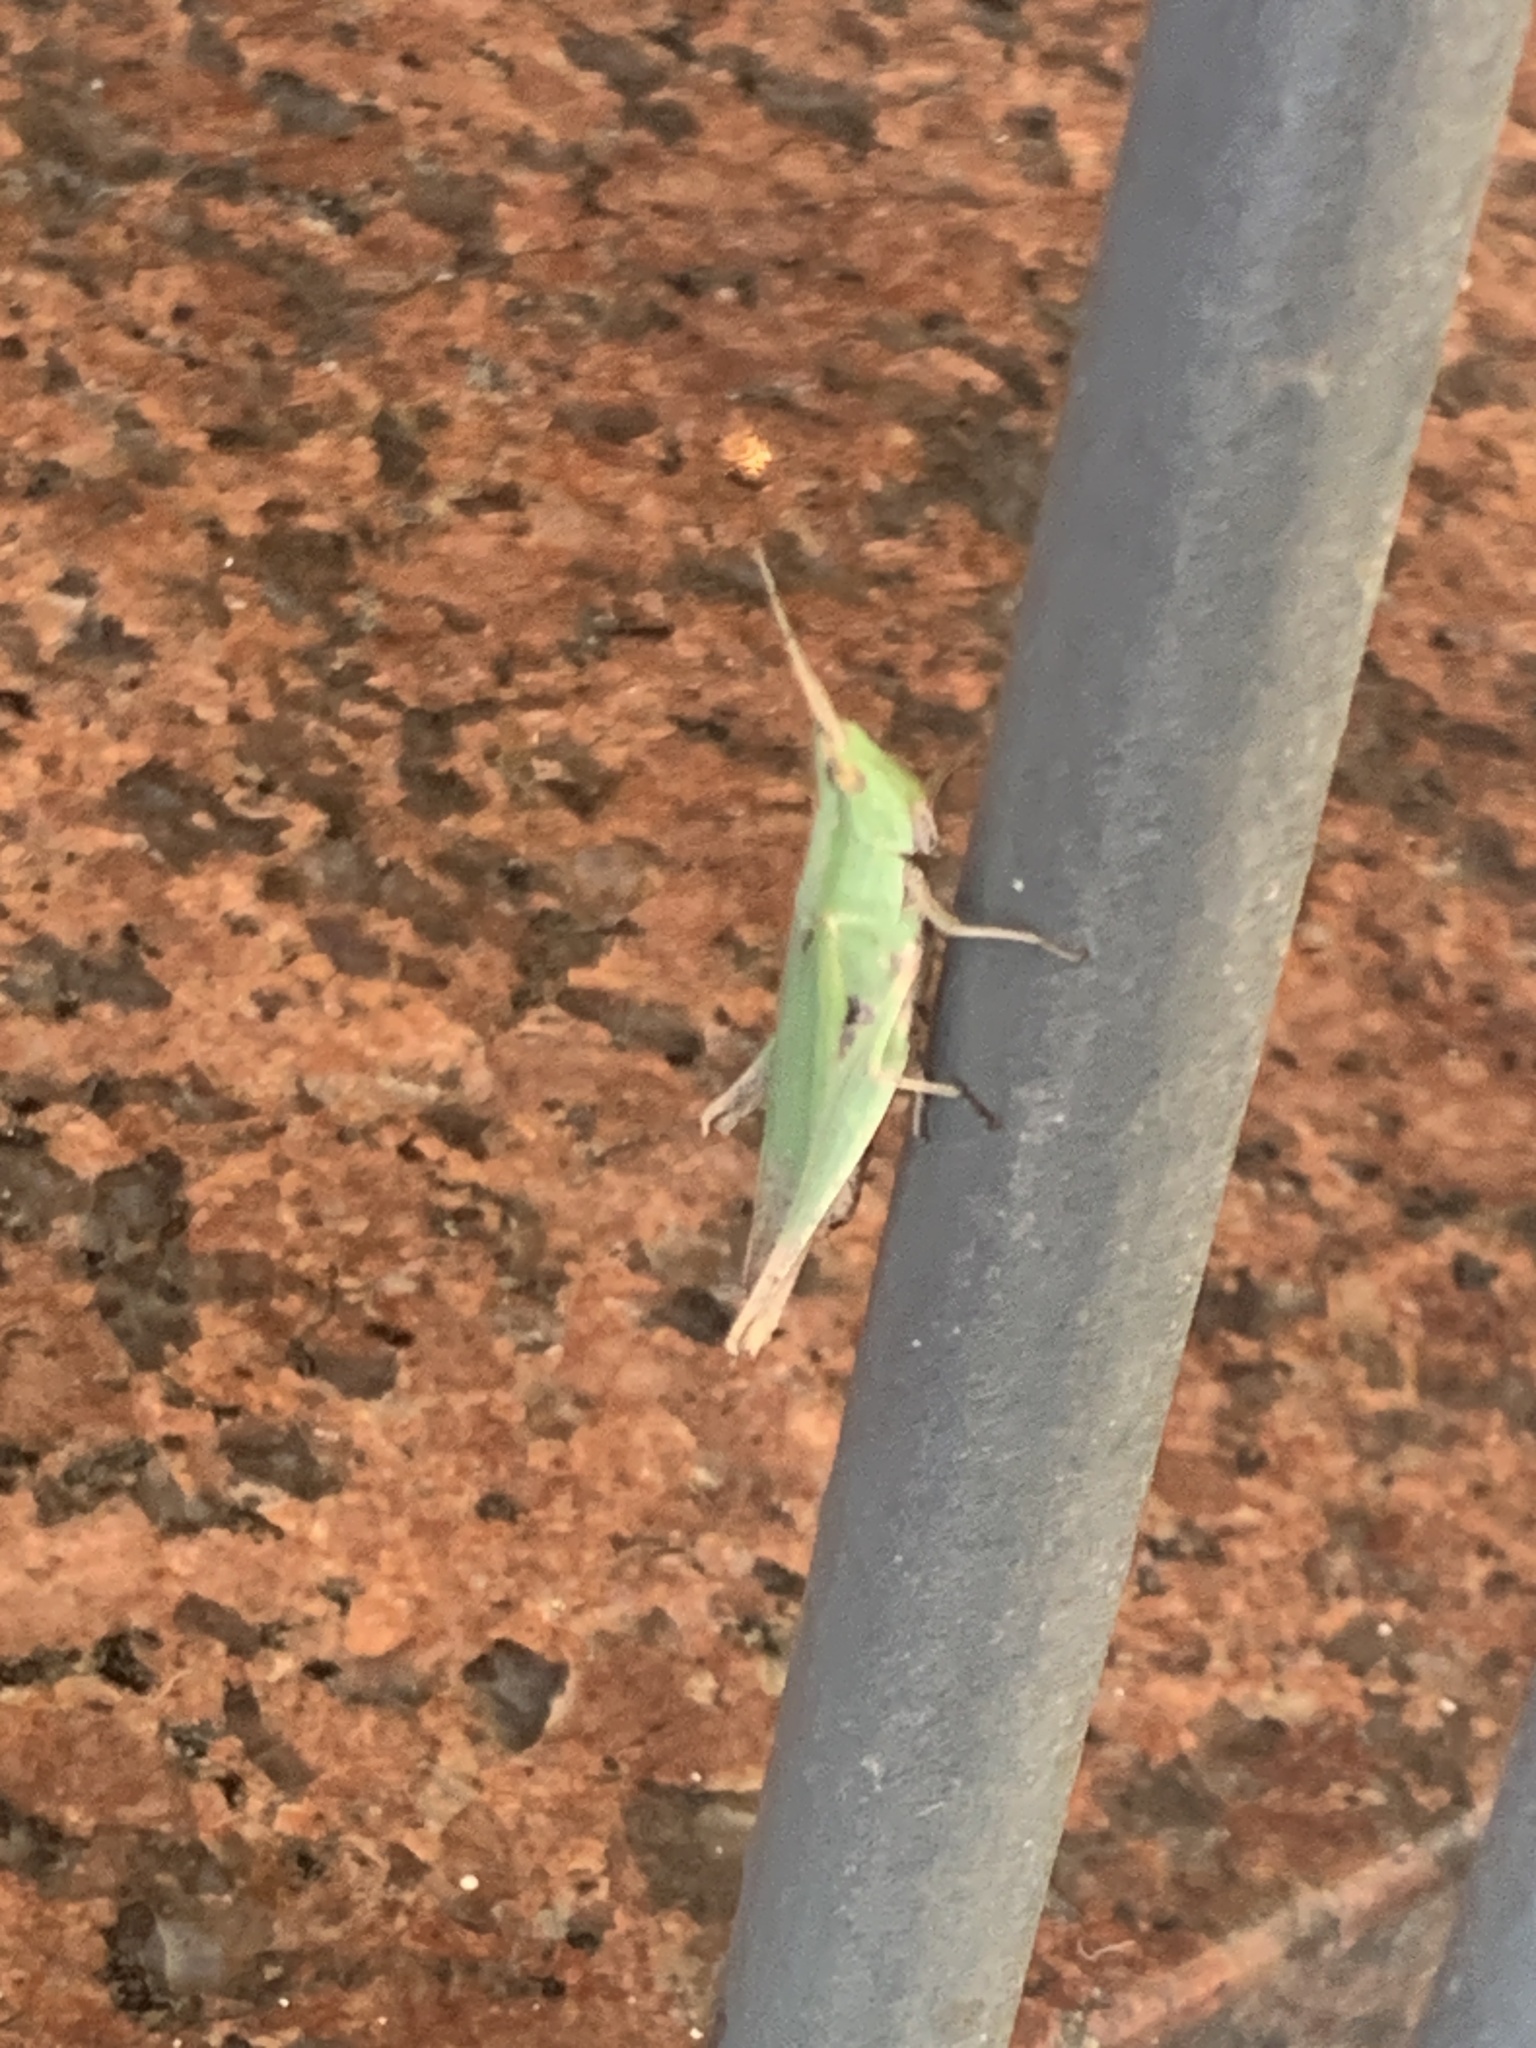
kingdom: Animalia
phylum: Arthropoda
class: Insecta
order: Orthoptera
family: Acrididae
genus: Allotruxalis
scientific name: Allotruxalis gracilis
